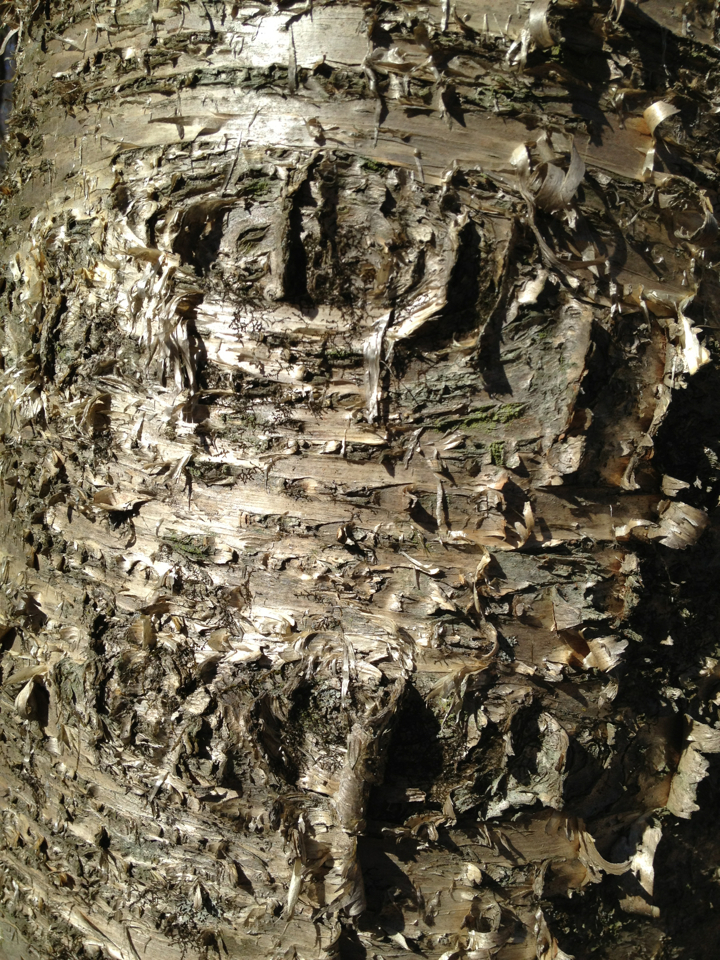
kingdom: Plantae
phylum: Tracheophyta
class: Magnoliopsida
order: Fagales
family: Betulaceae
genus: Betula
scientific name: Betula alleghaniensis
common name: Yellow birch
